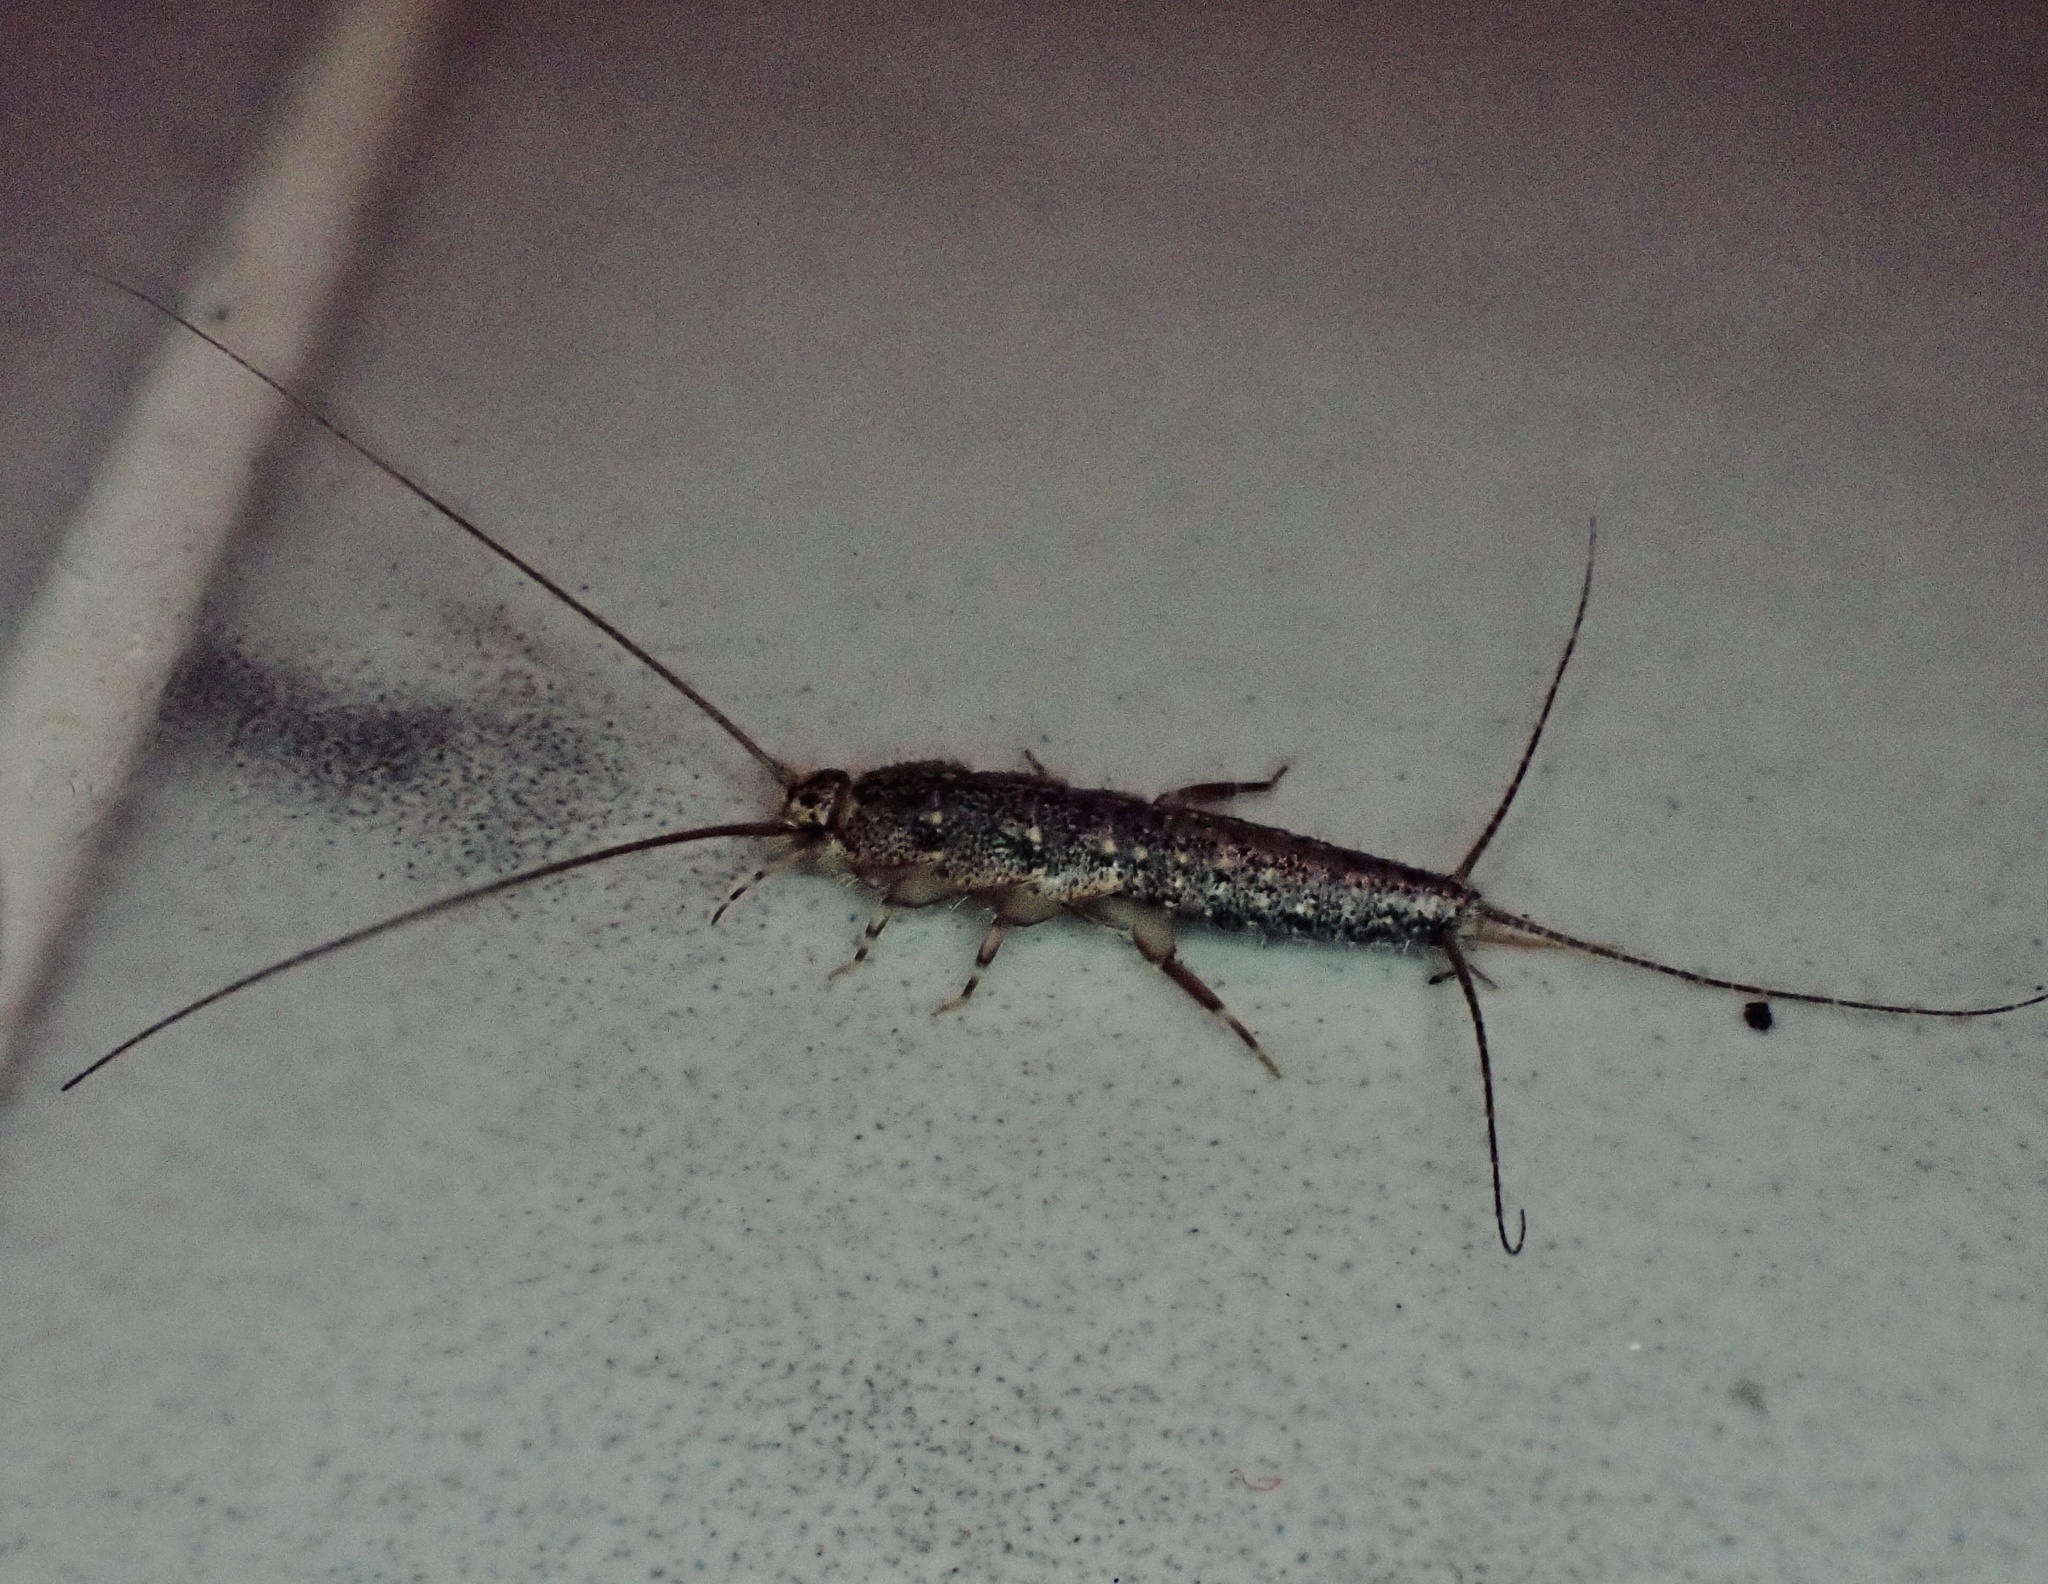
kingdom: Animalia
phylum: Arthropoda
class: Insecta
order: Zygentoma
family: Lepismatidae
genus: Ctenolepisma
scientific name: Ctenolepisma lineata
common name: Four-lined silverfish
